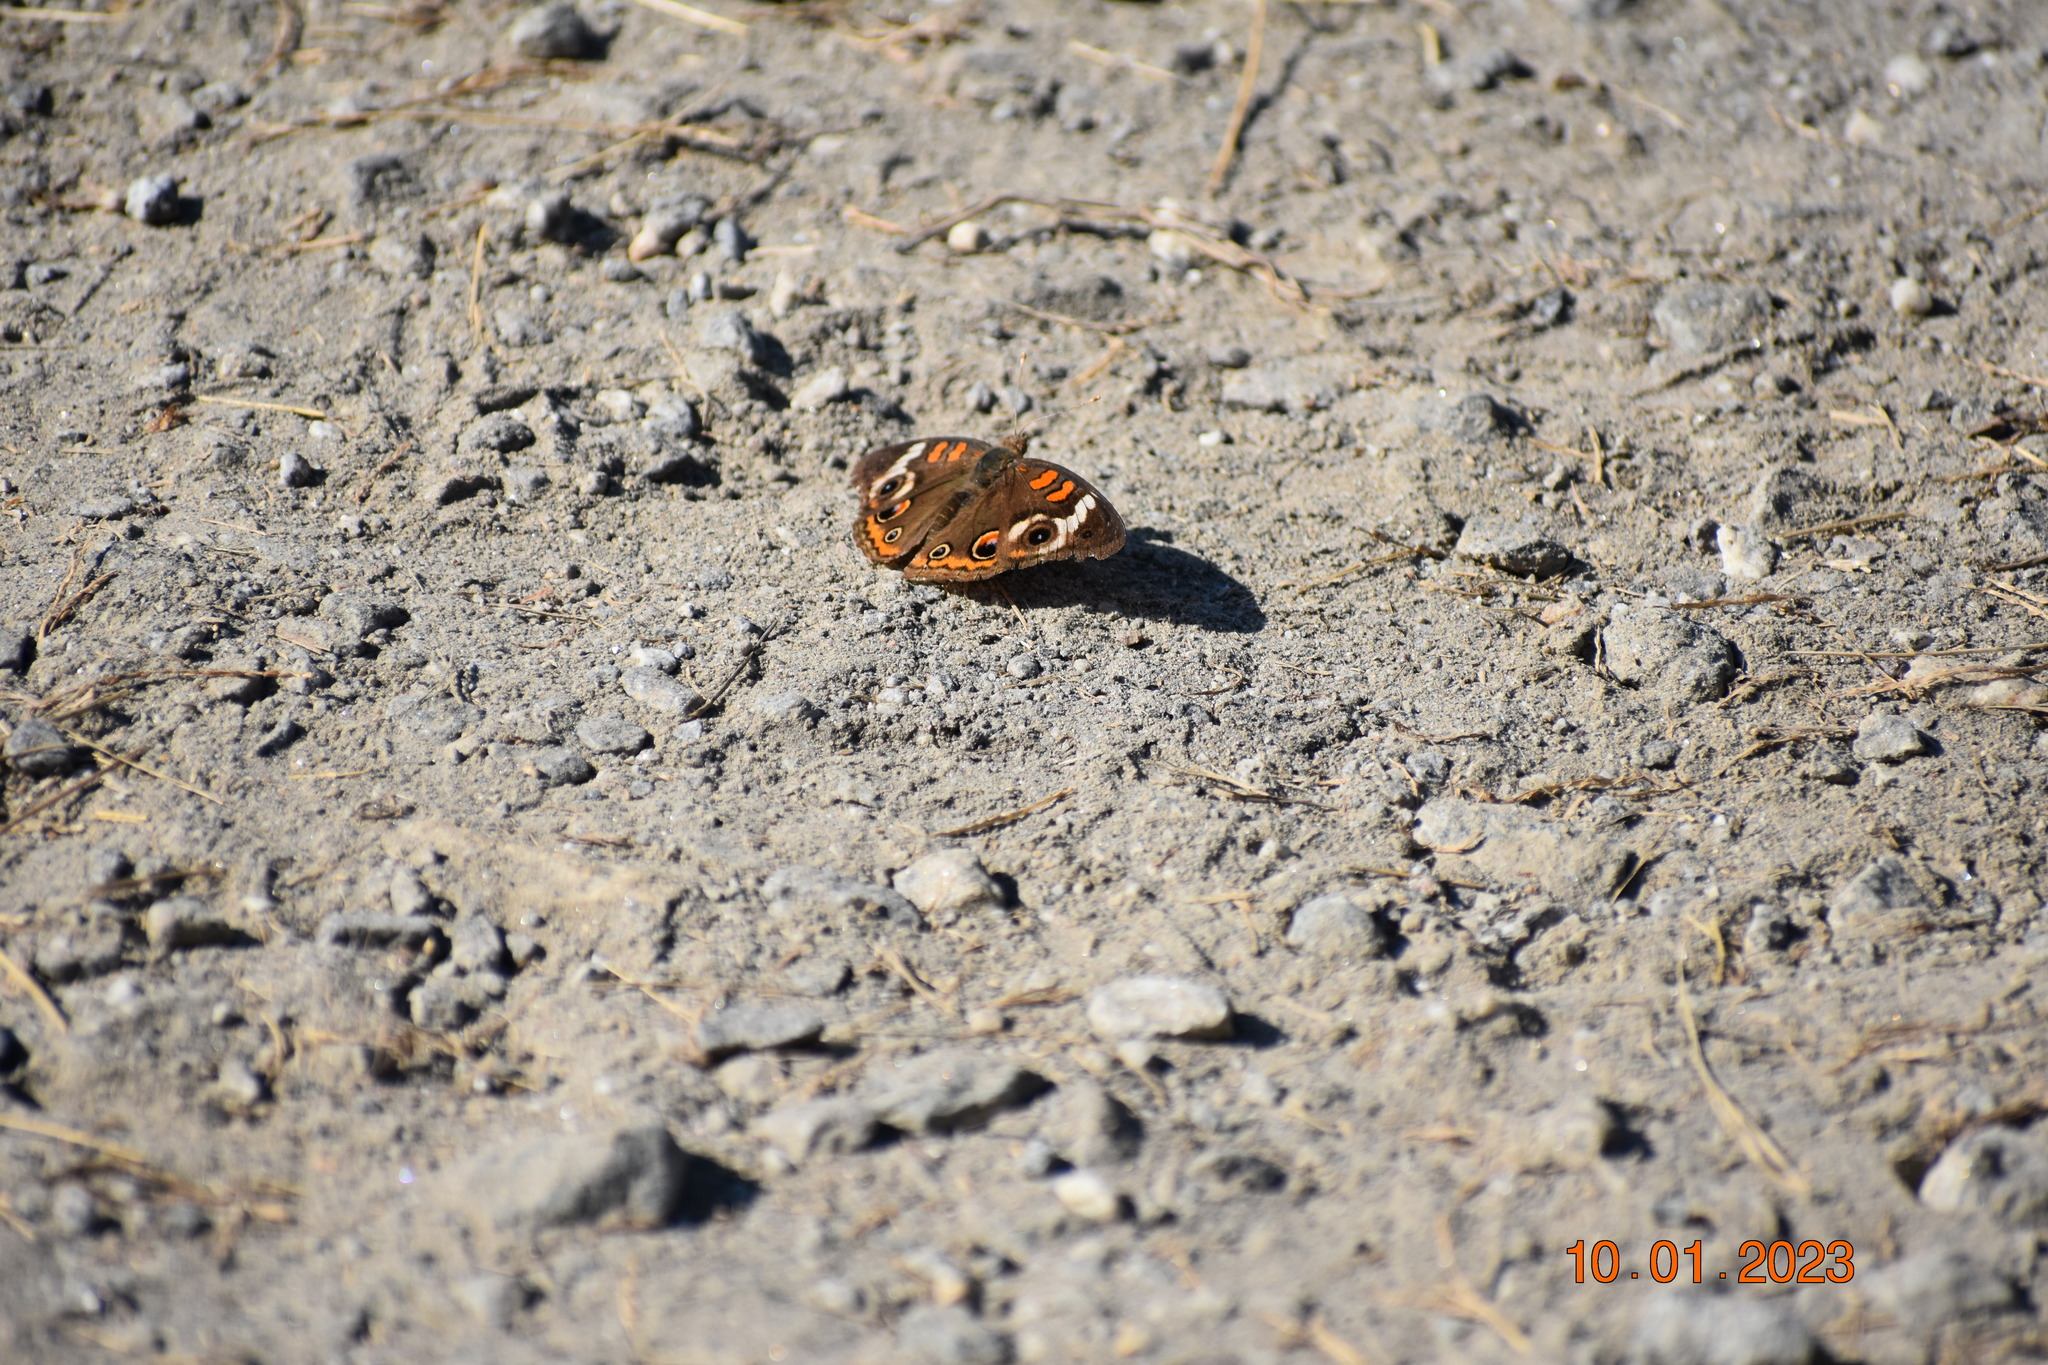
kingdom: Animalia
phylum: Arthropoda
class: Insecta
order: Lepidoptera
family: Nymphalidae
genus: Junonia
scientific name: Junonia coenia
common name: Common buckeye
